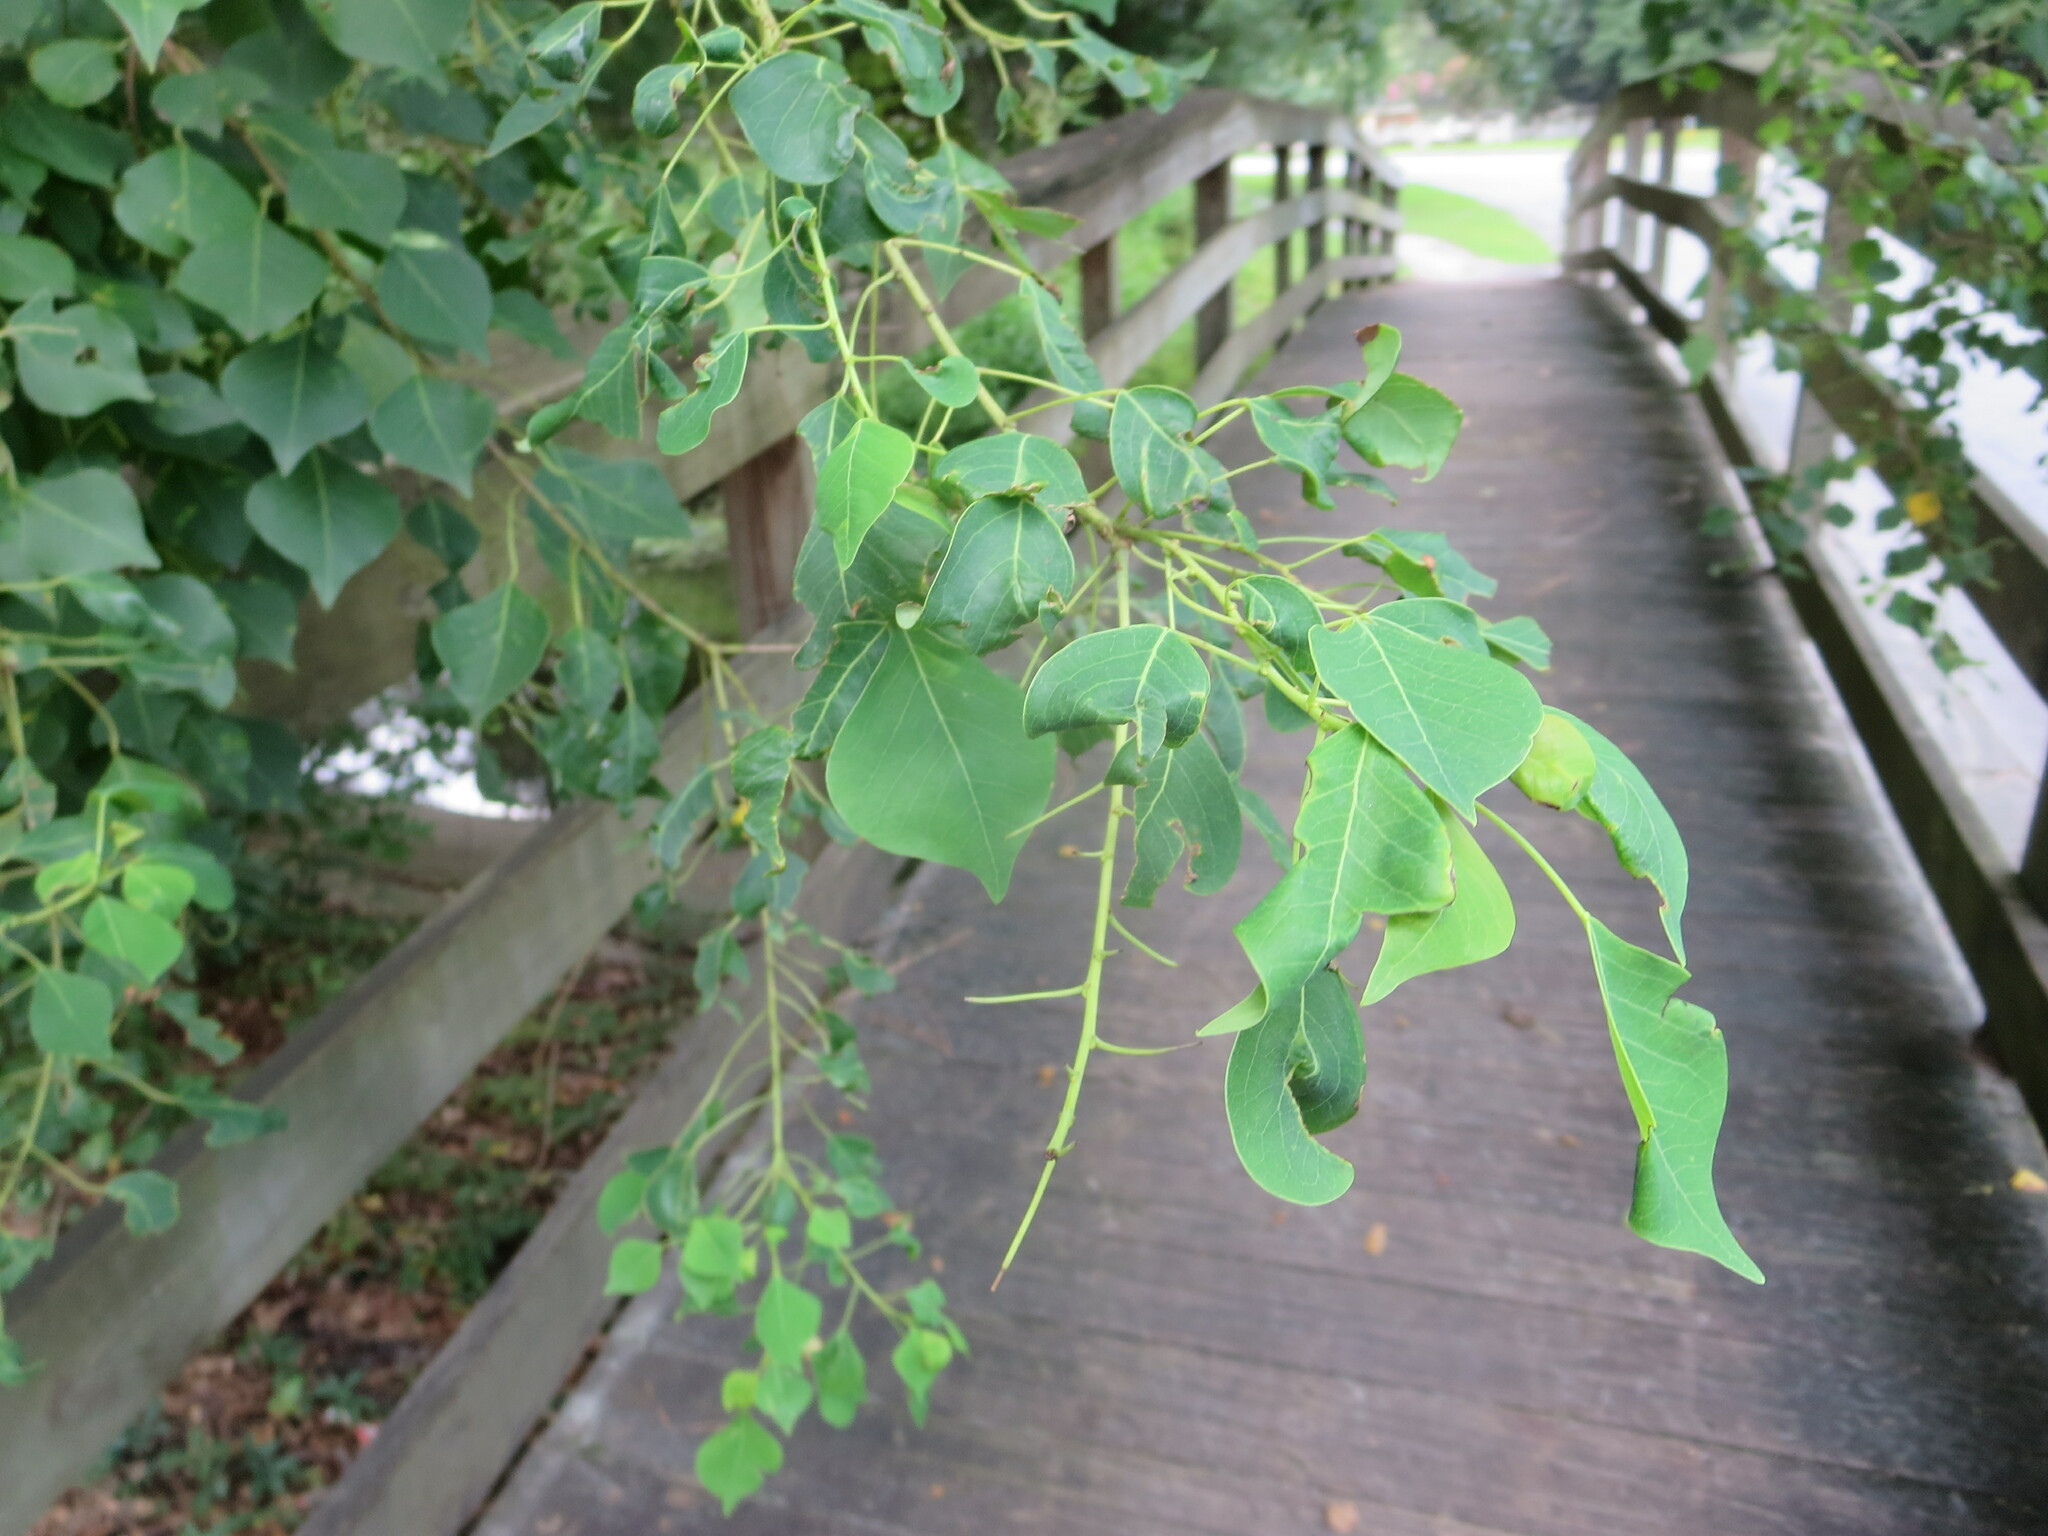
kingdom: Plantae
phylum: Tracheophyta
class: Magnoliopsida
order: Malpighiales
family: Euphorbiaceae
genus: Triadica
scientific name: Triadica sebifera
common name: Chinese tallow
